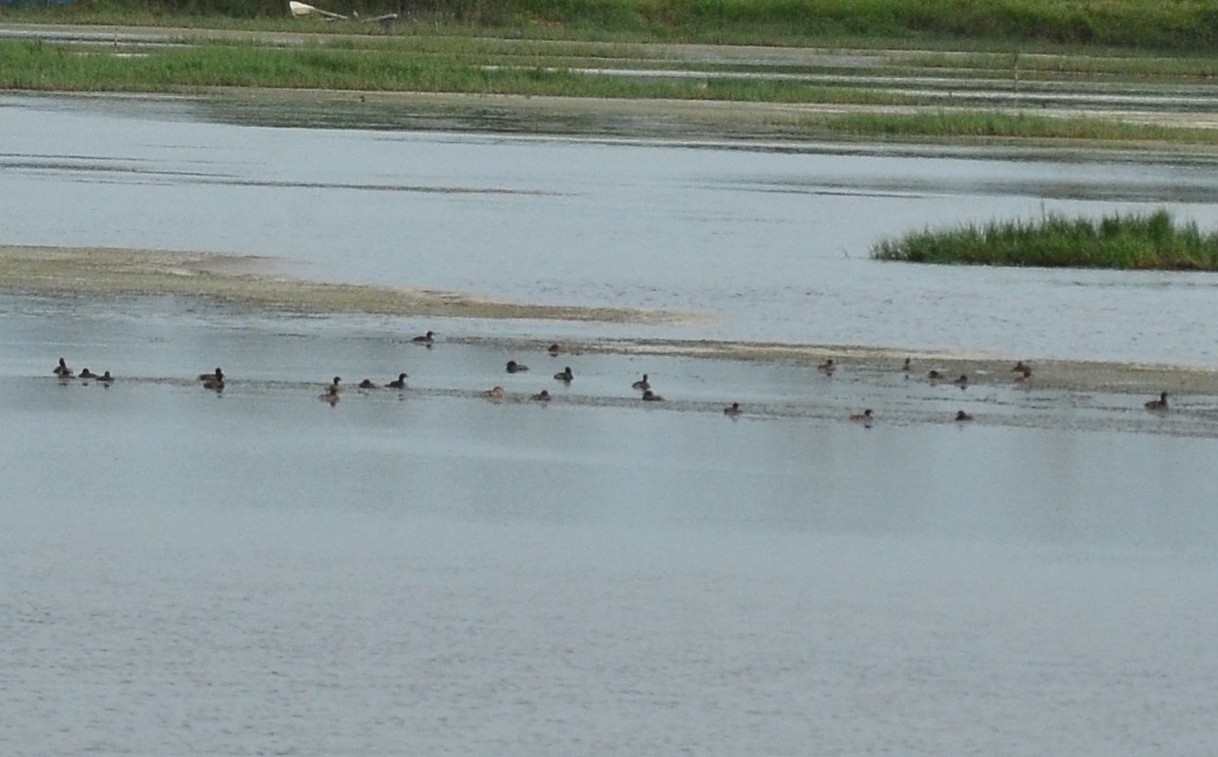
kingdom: Animalia
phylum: Chordata
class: Aves
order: Podicipediformes
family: Podicipedidae
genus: Tachybaptus
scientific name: Tachybaptus ruficollis
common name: Little grebe
